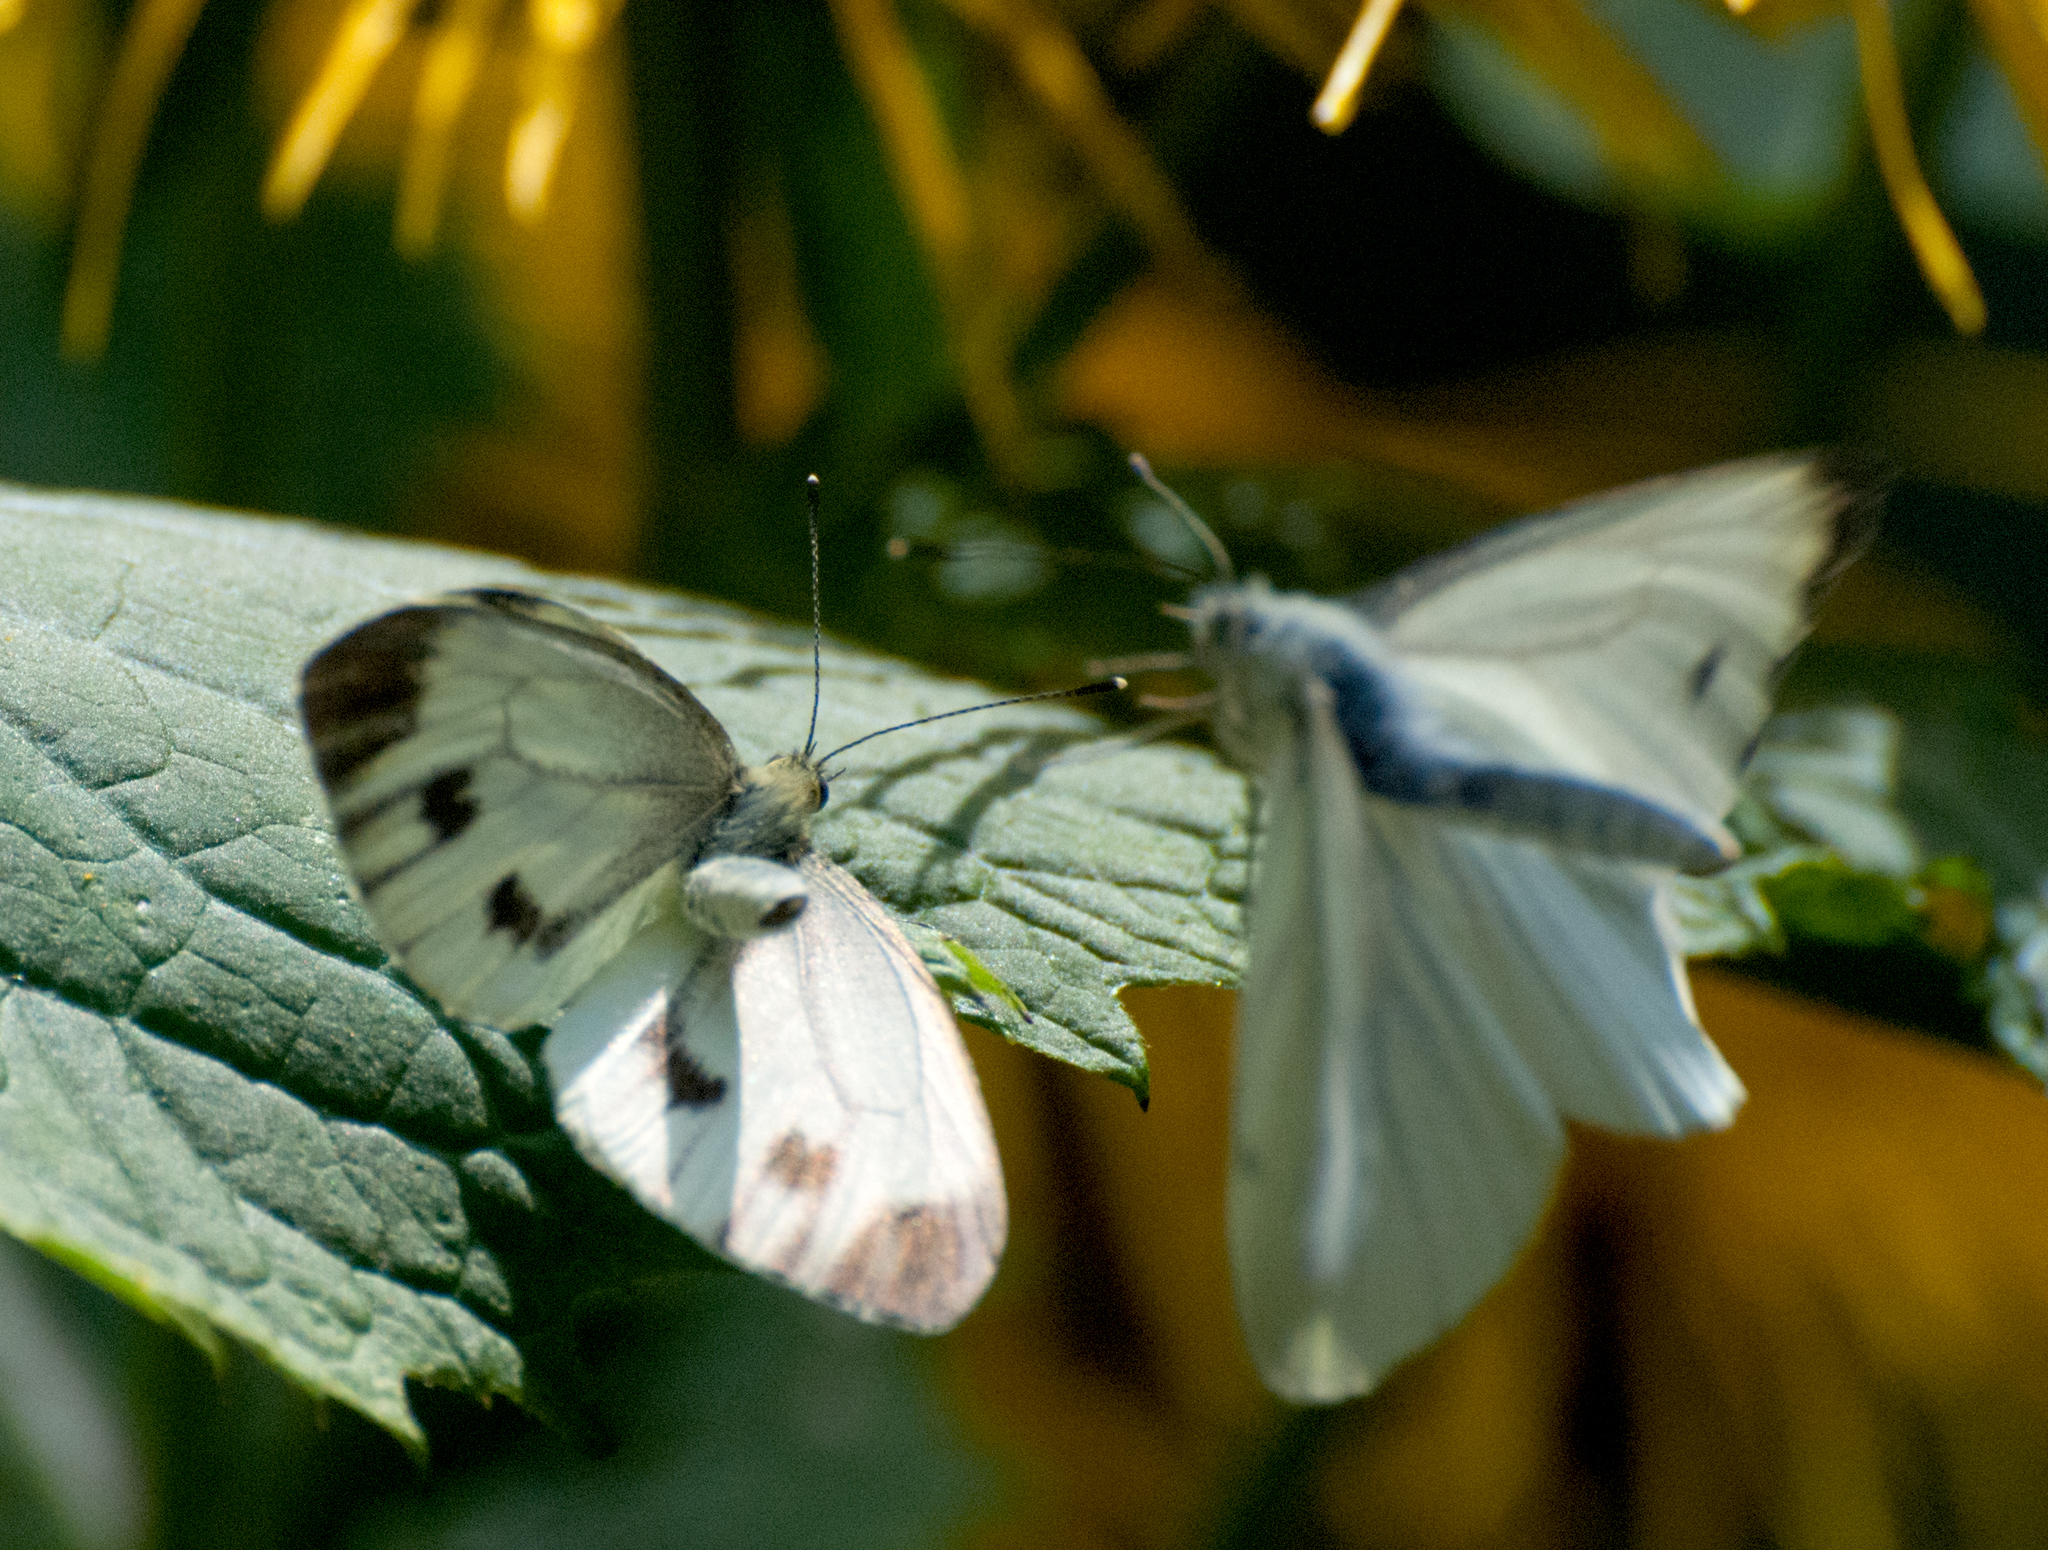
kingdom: Animalia
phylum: Arthropoda
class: Insecta
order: Lepidoptera
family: Pieridae
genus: Pieris
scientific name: Pieris napi
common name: Green-veined white
